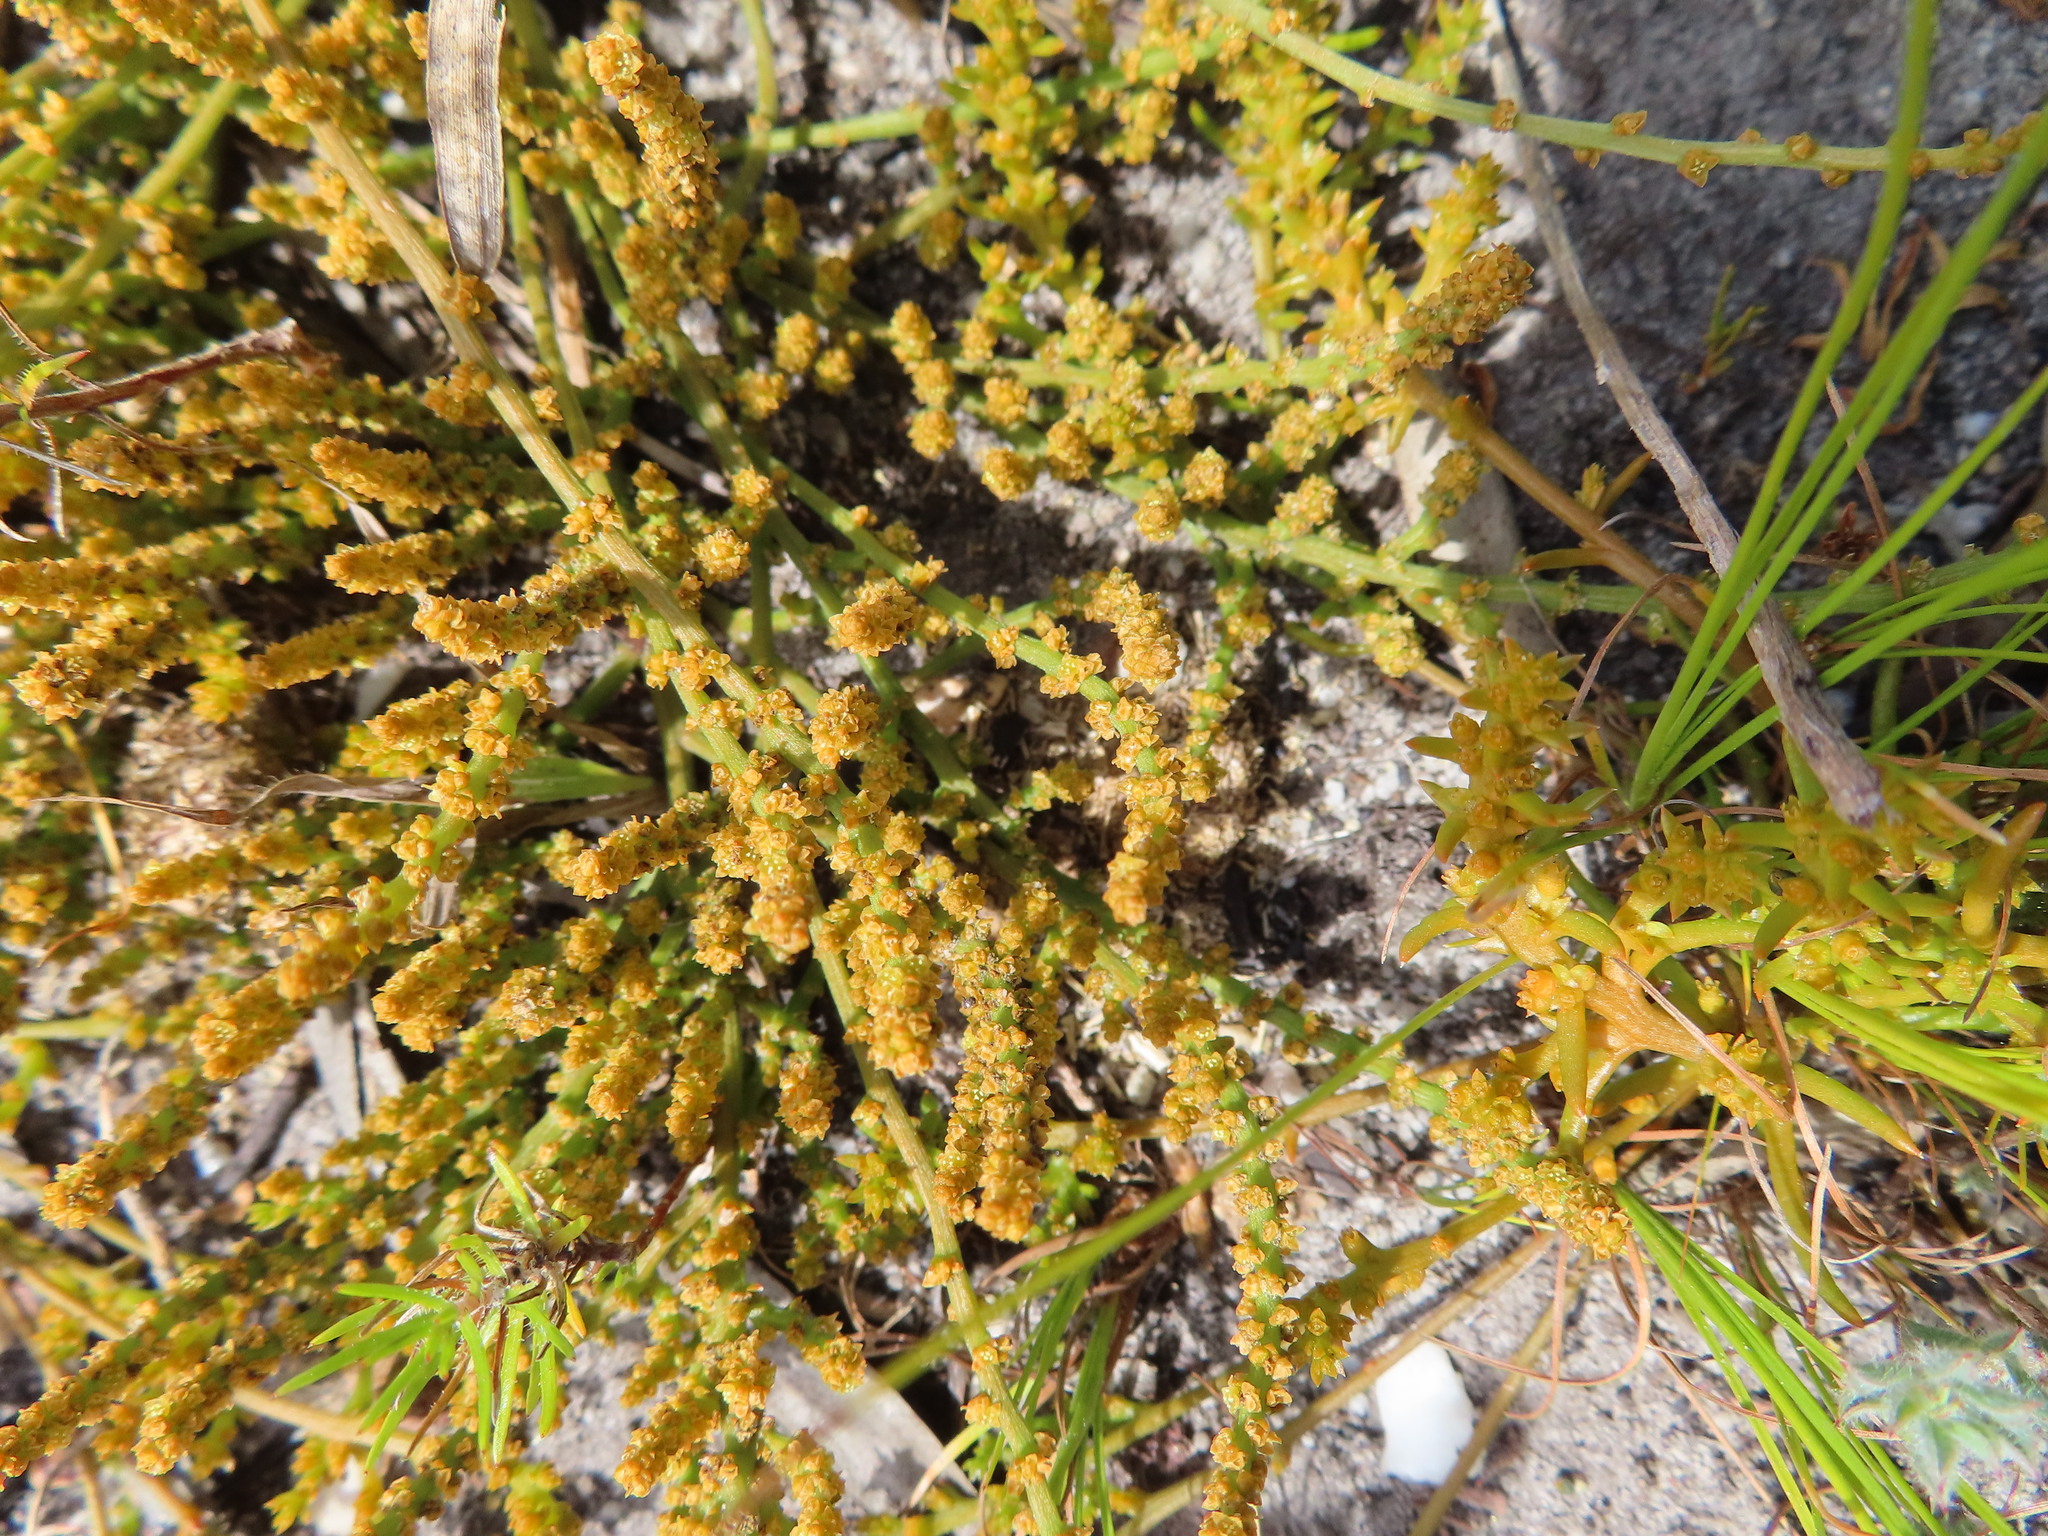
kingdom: Plantae
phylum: Tracheophyta
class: Magnoliopsida
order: Santalales
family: Thesiaceae
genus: Thesium
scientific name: Thesium fragile
